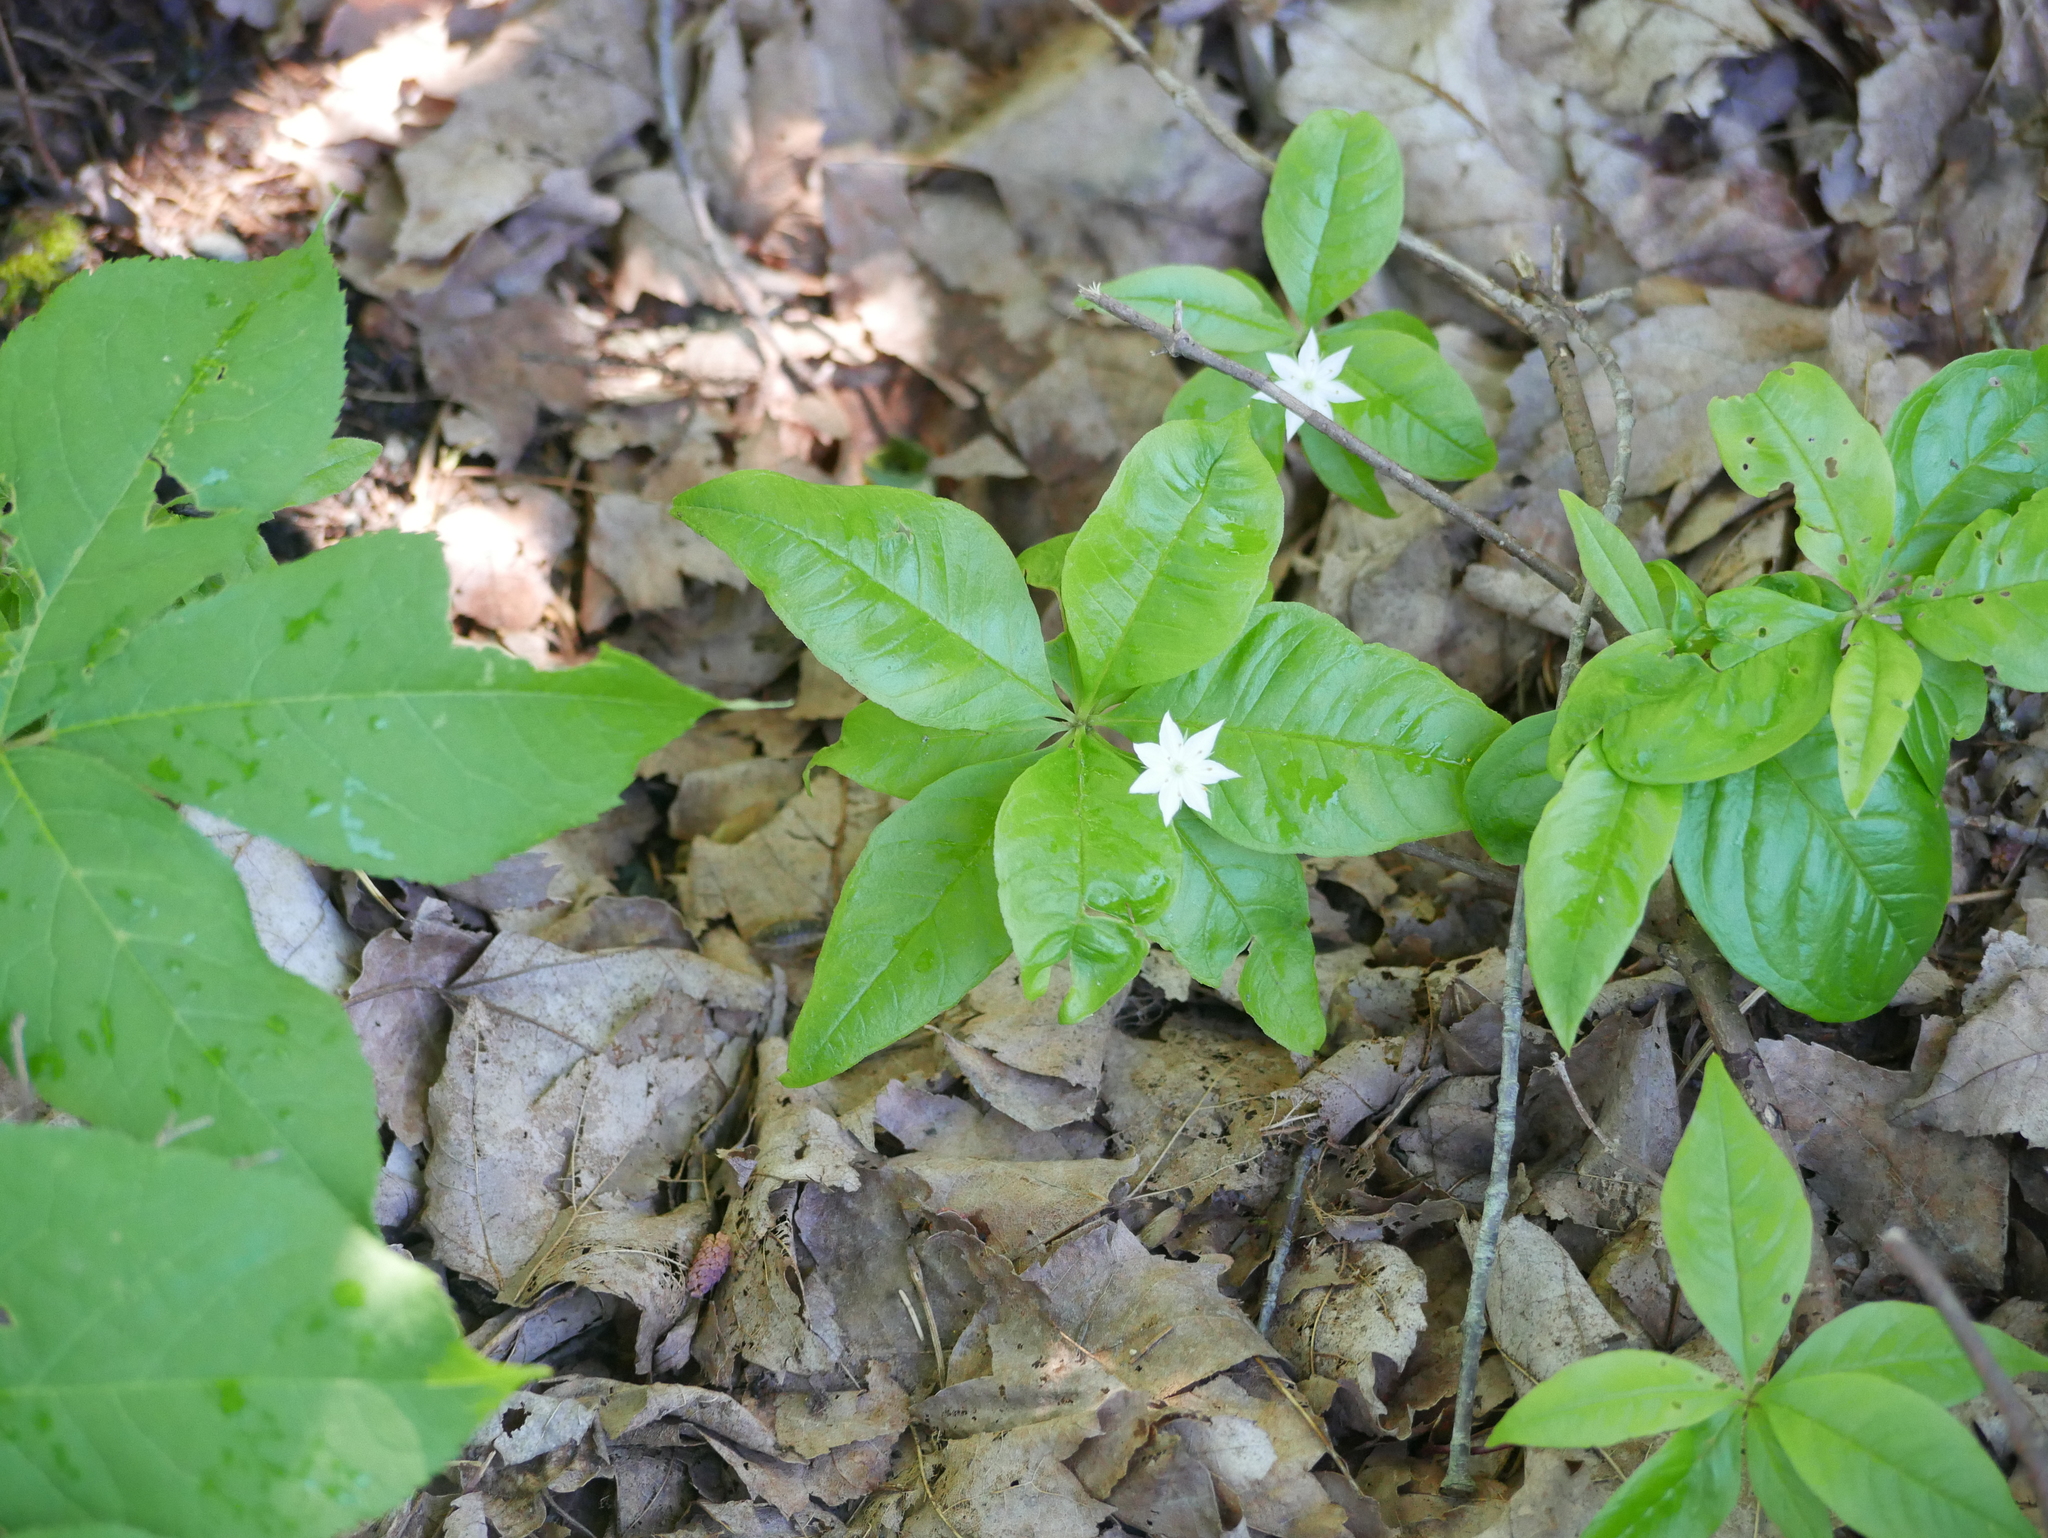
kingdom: Plantae
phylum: Tracheophyta
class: Magnoliopsida
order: Ericales
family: Primulaceae
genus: Lysimachia
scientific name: Lysimachia borealis
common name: American starflower
